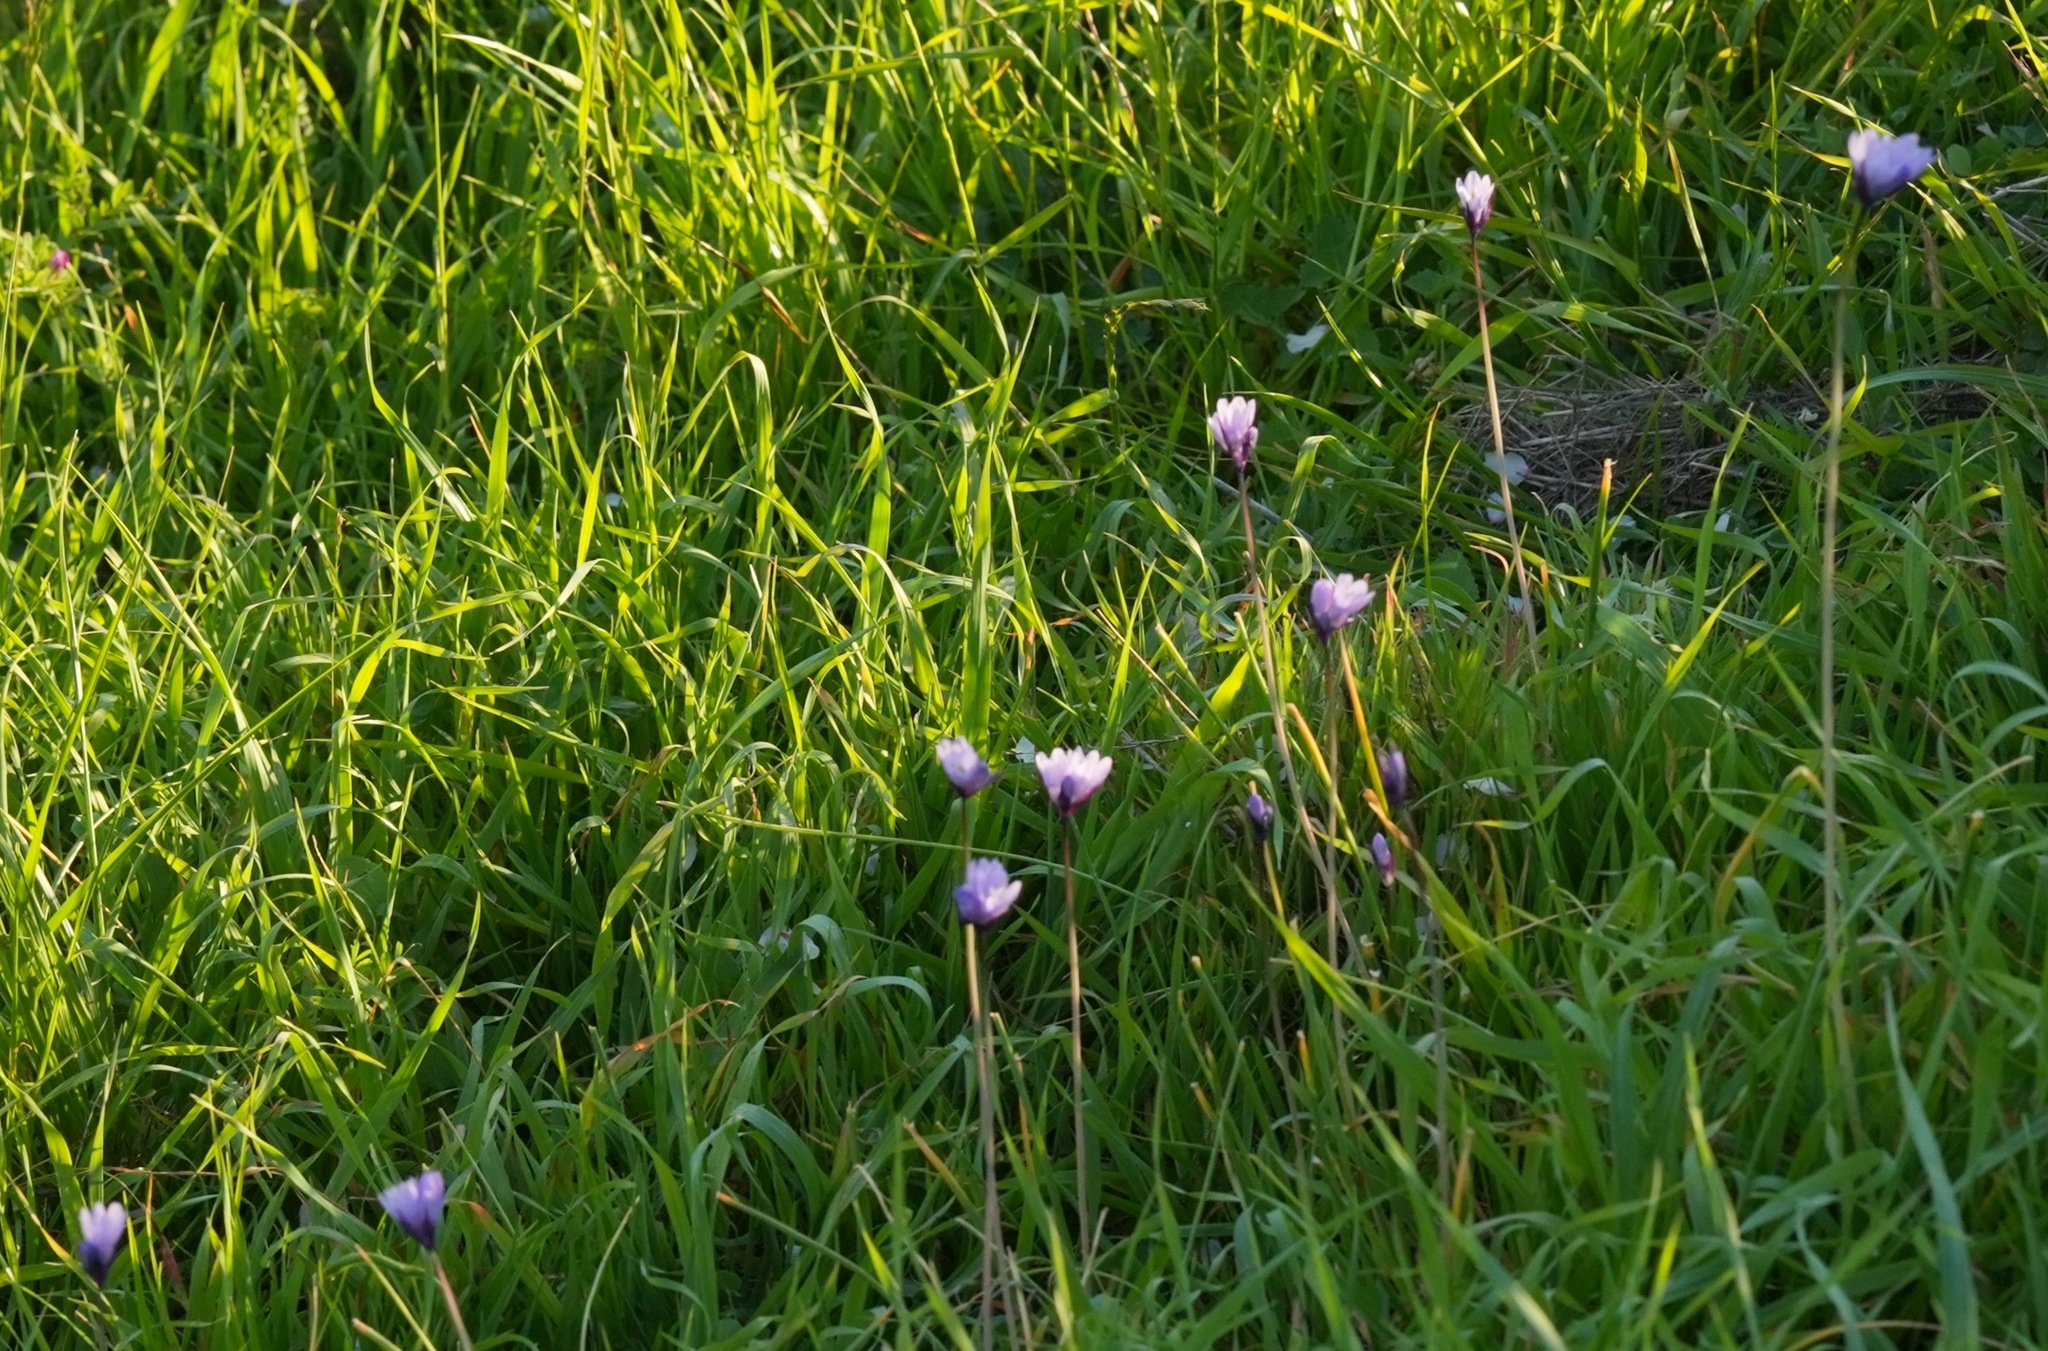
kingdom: Plantae
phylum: Tracheophyta
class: Liliopsida
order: Asparagales
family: Asparagaceae
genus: Dipterostemon
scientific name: Dipterostemon capitatus
